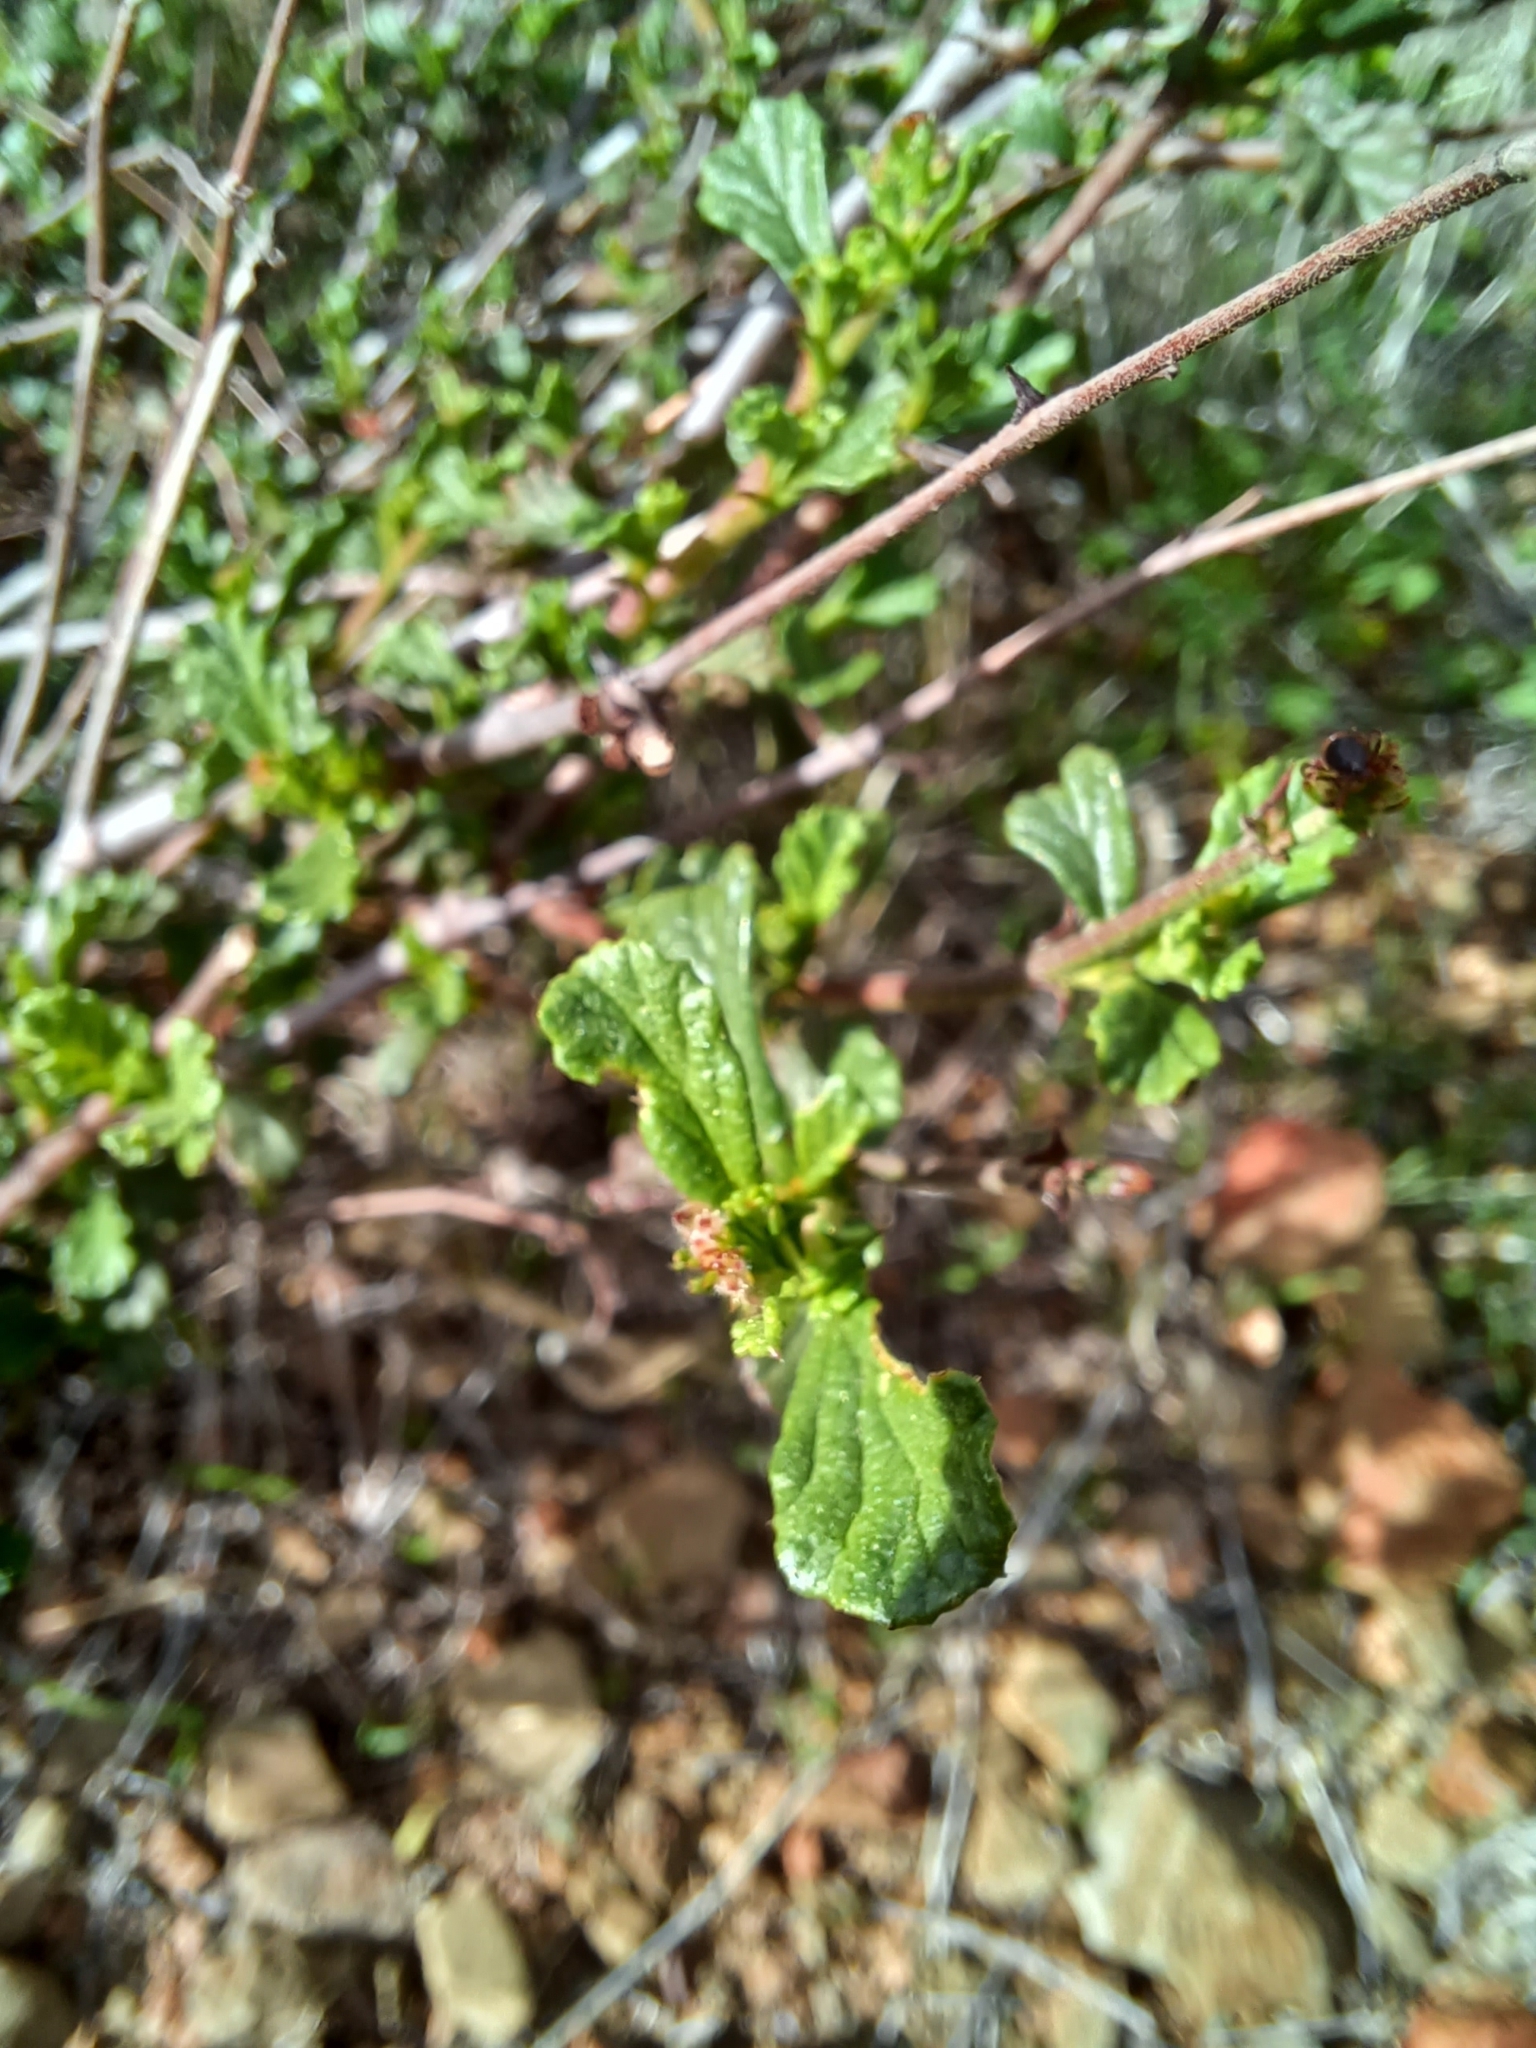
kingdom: Plantae
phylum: Tracheophyta
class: Magnoliopsida
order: Malvales
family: Malvaceae
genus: Hermannia
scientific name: Hermannia alnifolia
